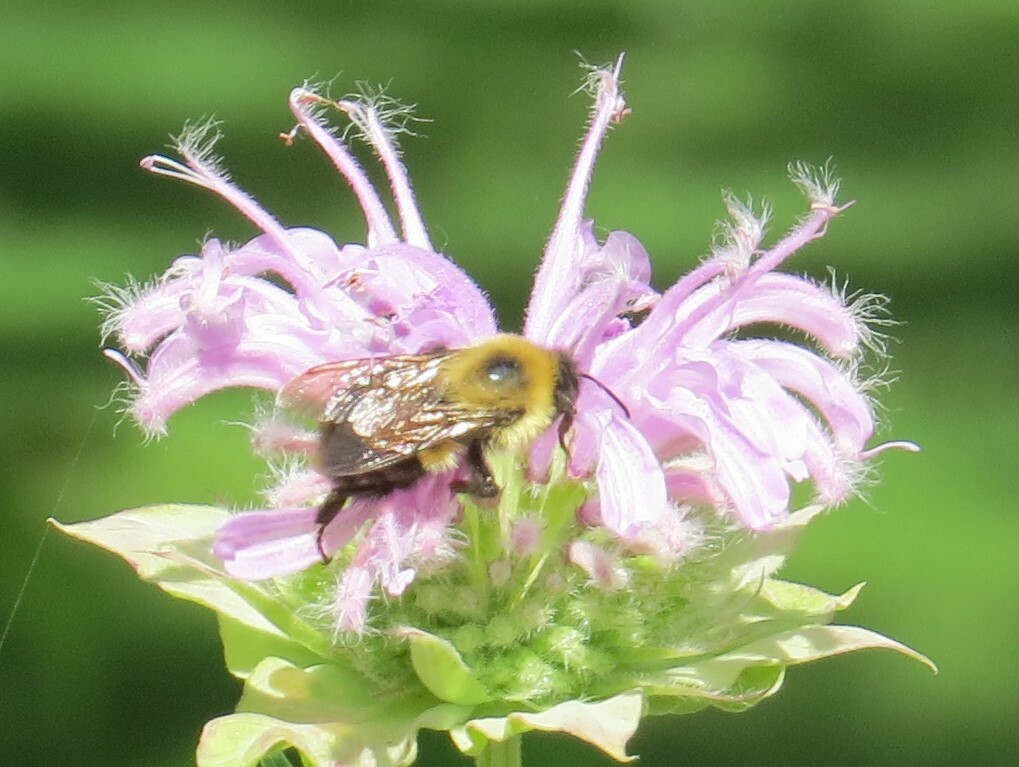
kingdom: Animalia
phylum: Arthropoda
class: Insecta
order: Hymenoptera
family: Apidae
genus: Bombus
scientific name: Bombus bimaculatus
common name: Two-spotted bumble bee
